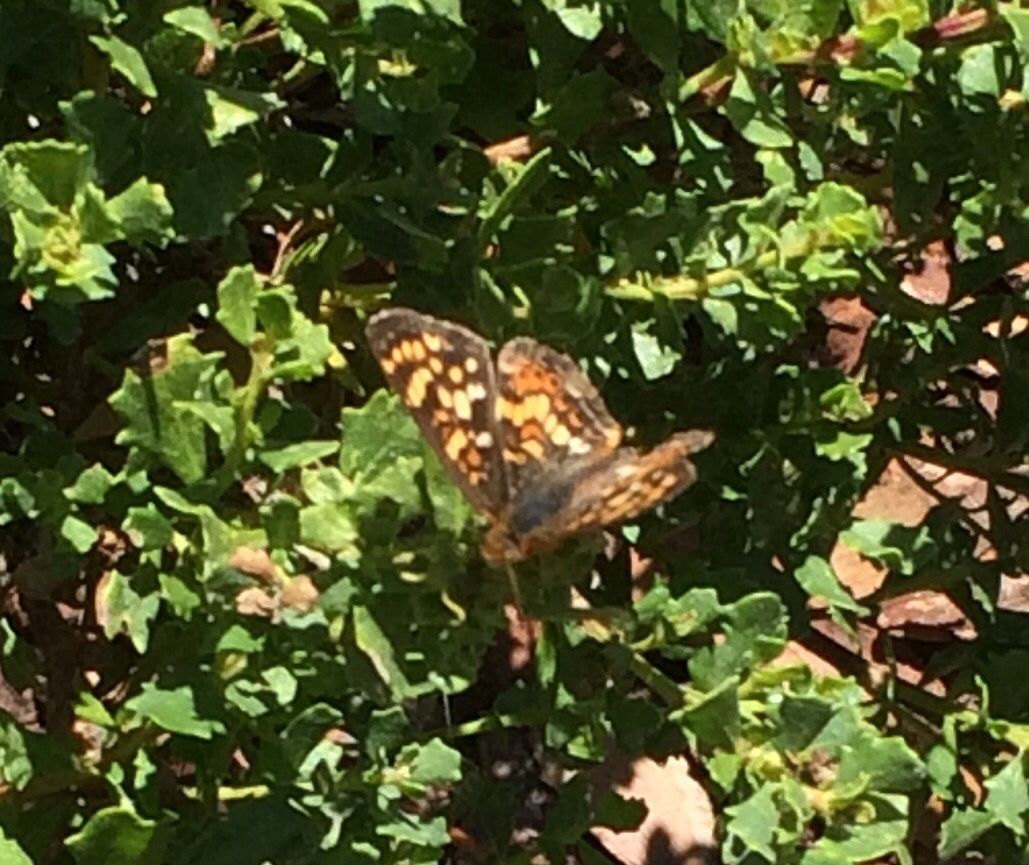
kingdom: Animalia
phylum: Arthropoda
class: Insecta
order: Lepidoptera
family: Nymphalidae
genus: Phyciodes
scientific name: Phyciodes tharos
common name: Pearl crescent
